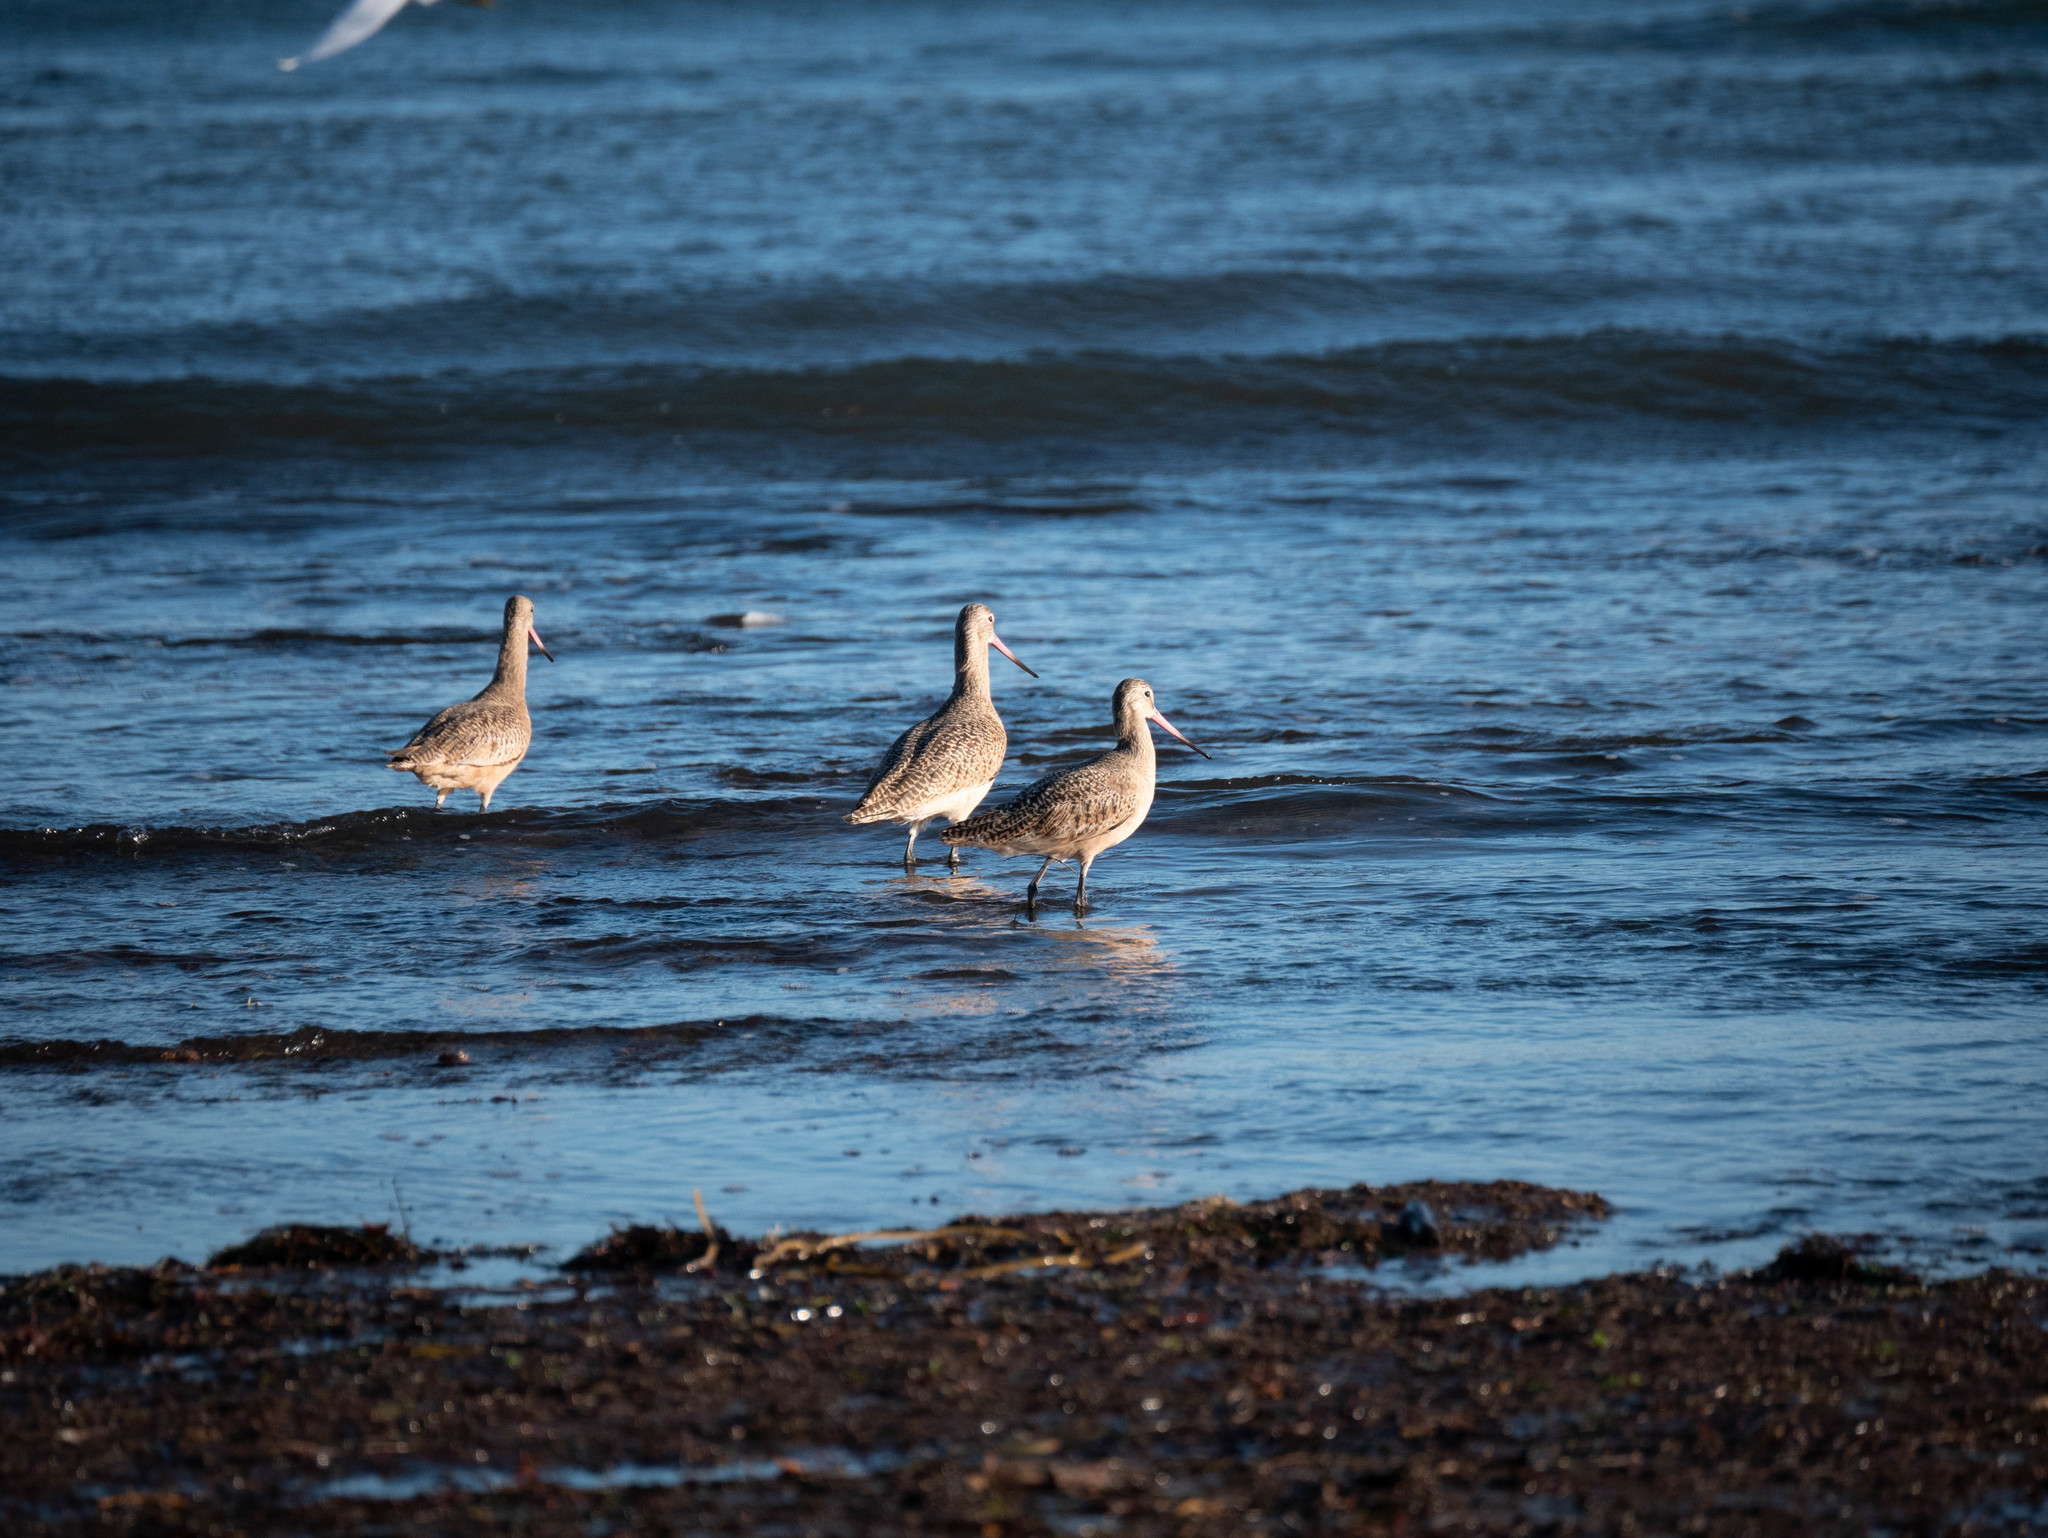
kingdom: Animalia
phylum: Chordata
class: Aves
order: Charadriiformes
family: Scolopacidae
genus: Limosa
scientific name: Limosa fedoa
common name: Marbled godwit
